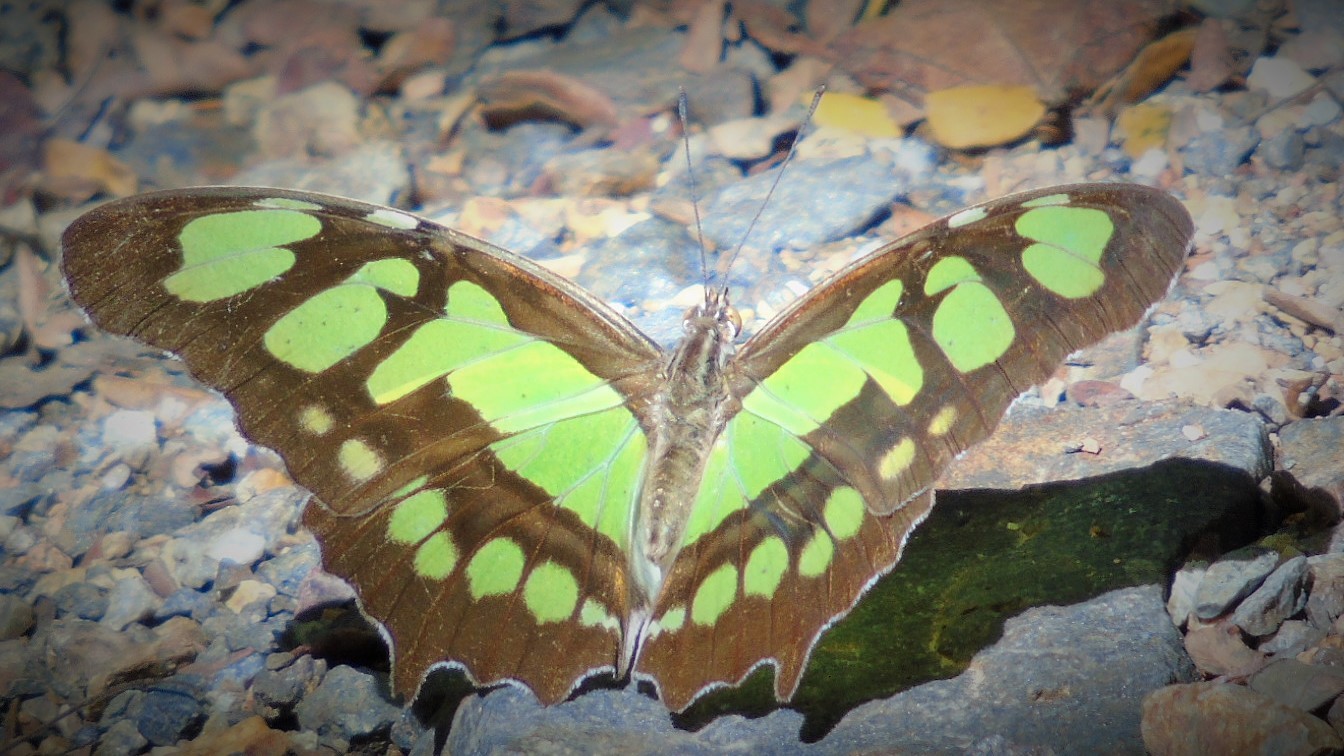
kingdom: Animalia
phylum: Arthropoda
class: Insecta
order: Lepidoptera
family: Nymphalidae
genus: Siproeta
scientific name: Siproeta stelenes
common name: Malachite
